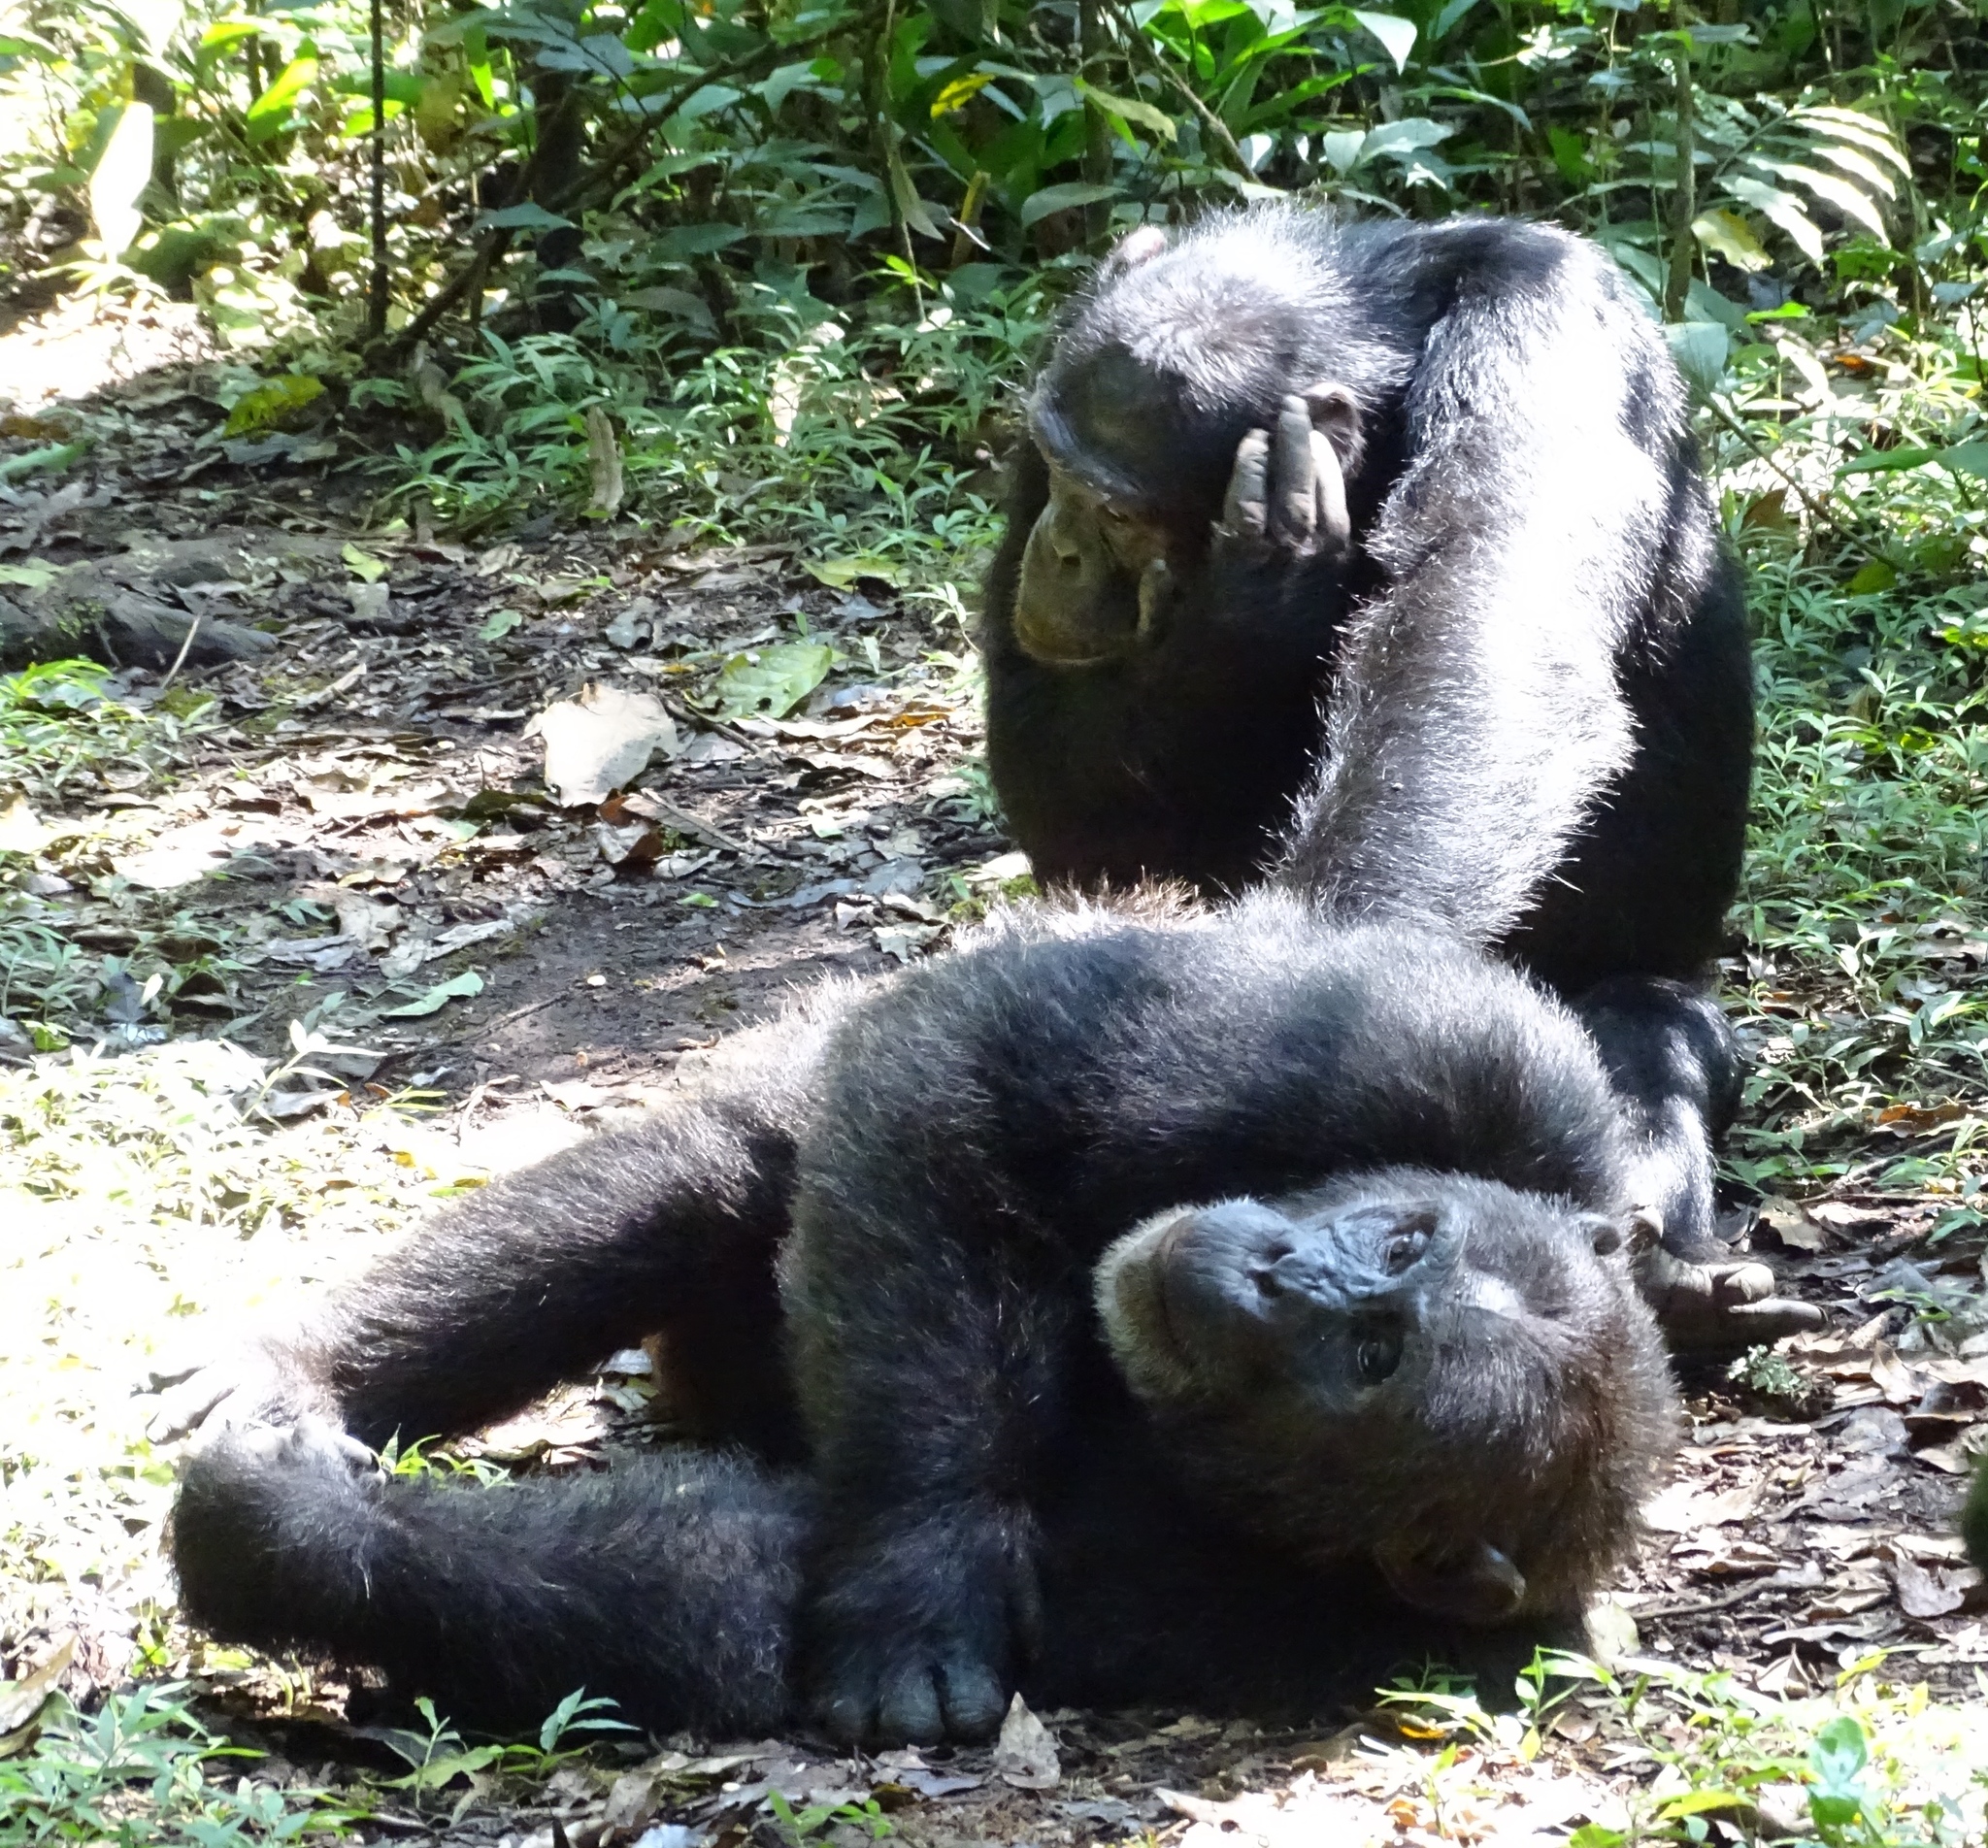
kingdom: Animalia
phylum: Chordata
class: Mammalia
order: Primates
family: Hominidae
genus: Pan
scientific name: Pan troglodytes
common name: Chimpanzee
